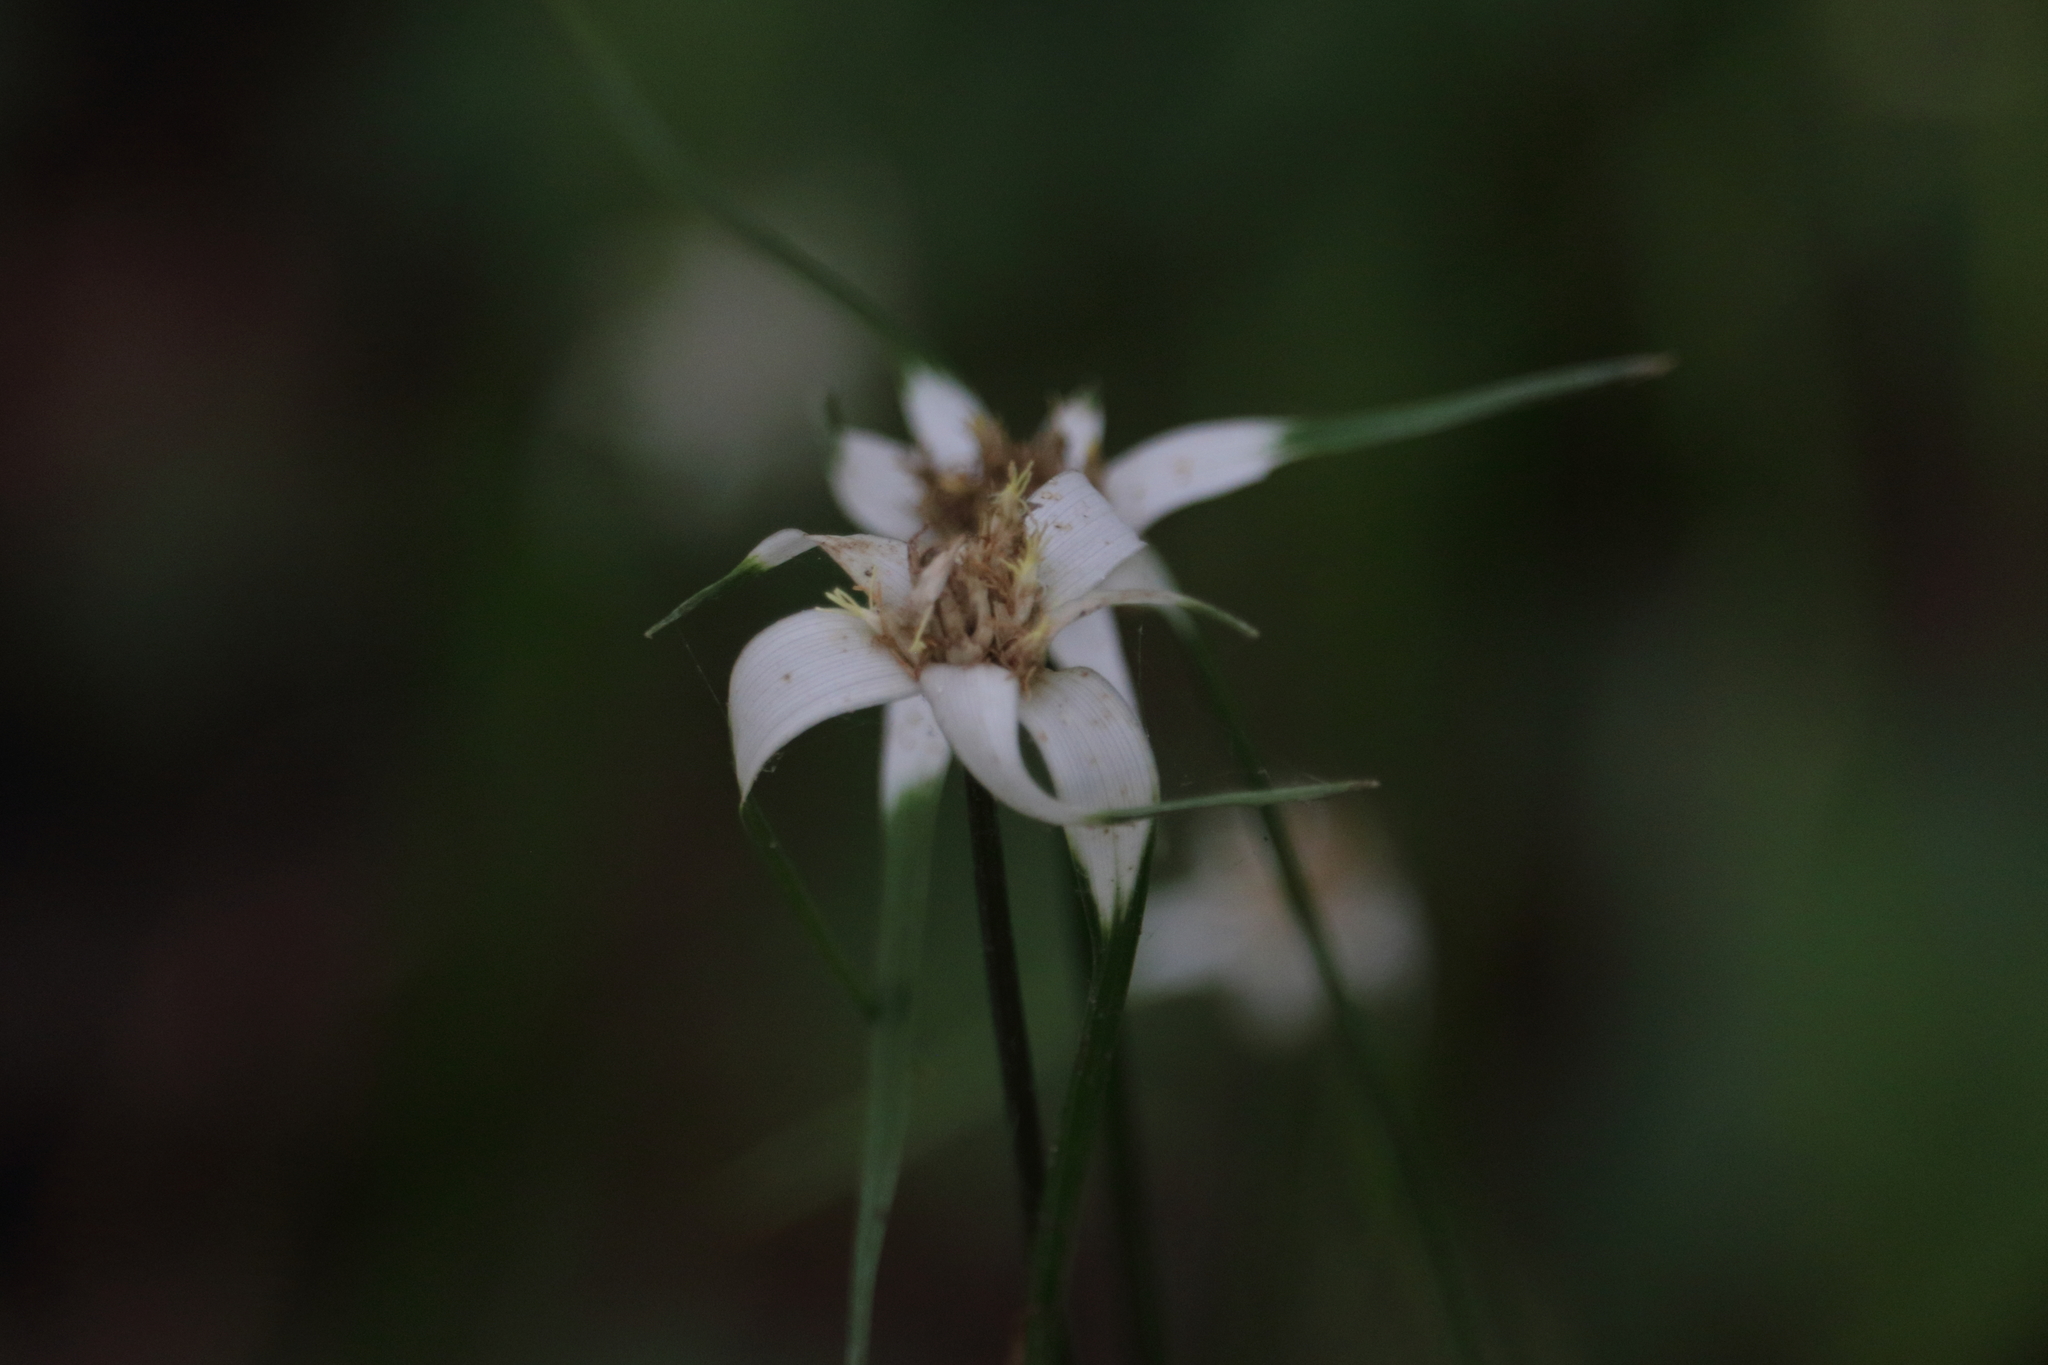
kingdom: Plantae
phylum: Tracheophyta
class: Liliopsida
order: Poales
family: Cyperaceae
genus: Rhynchospora
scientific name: Rhynchospora colorata
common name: Star sedge
